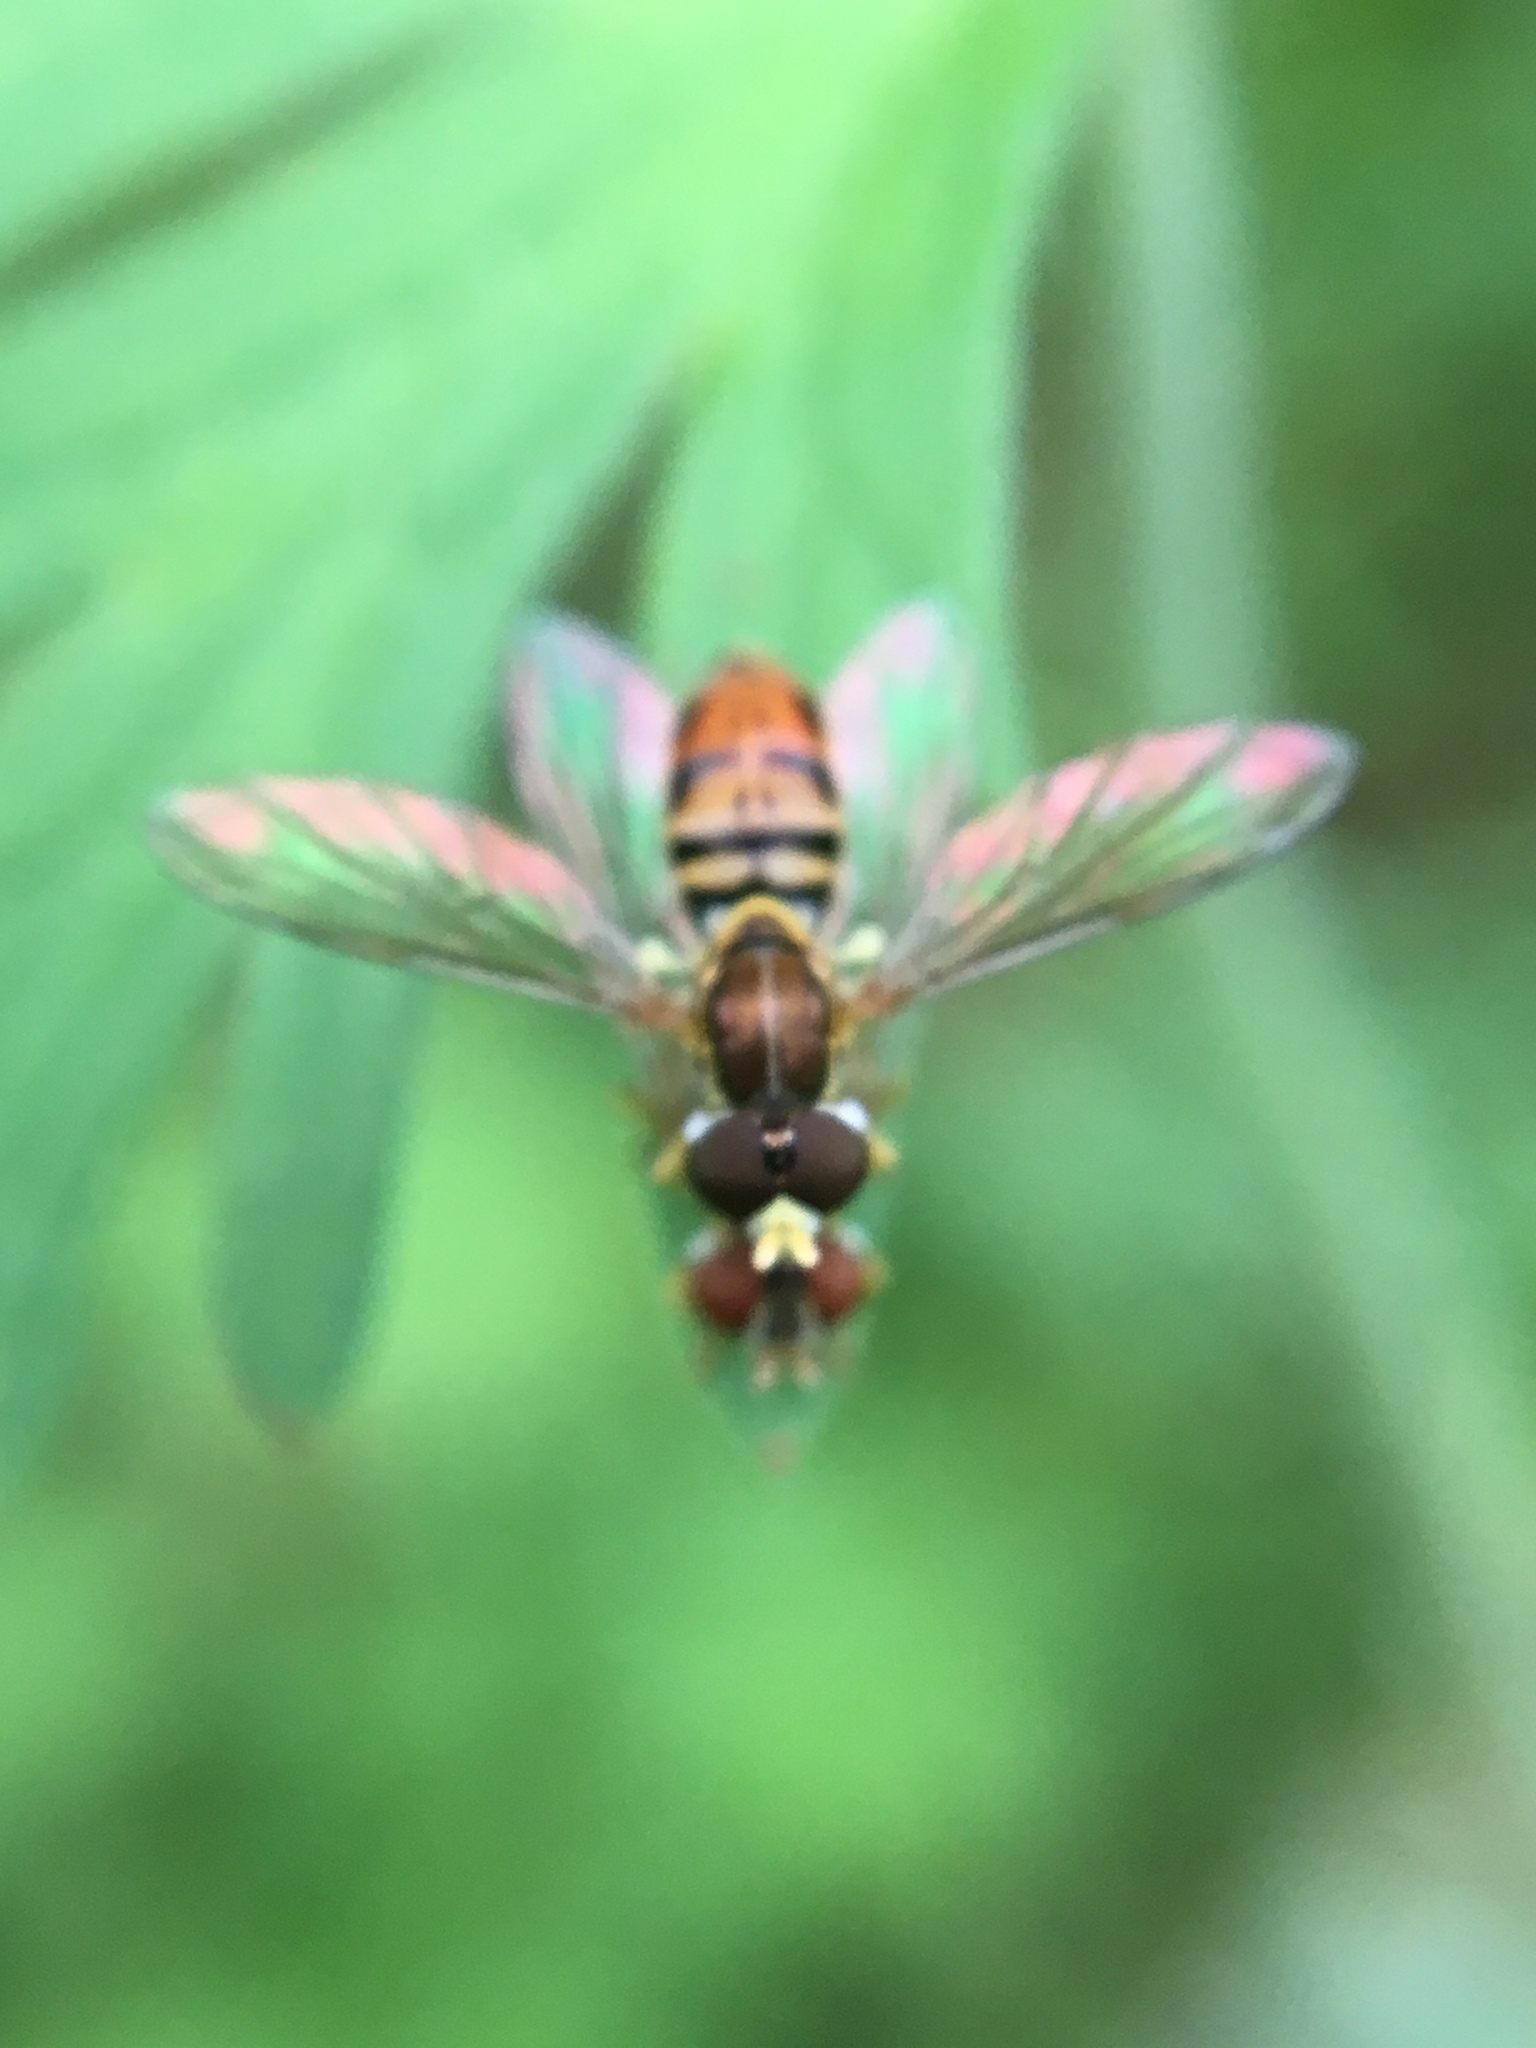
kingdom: Animalia
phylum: Arthropoda
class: Insecta
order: Diptera
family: Syrphidae
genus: Toxomerus
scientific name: Toxomerus marginatus
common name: Syrphid fly
